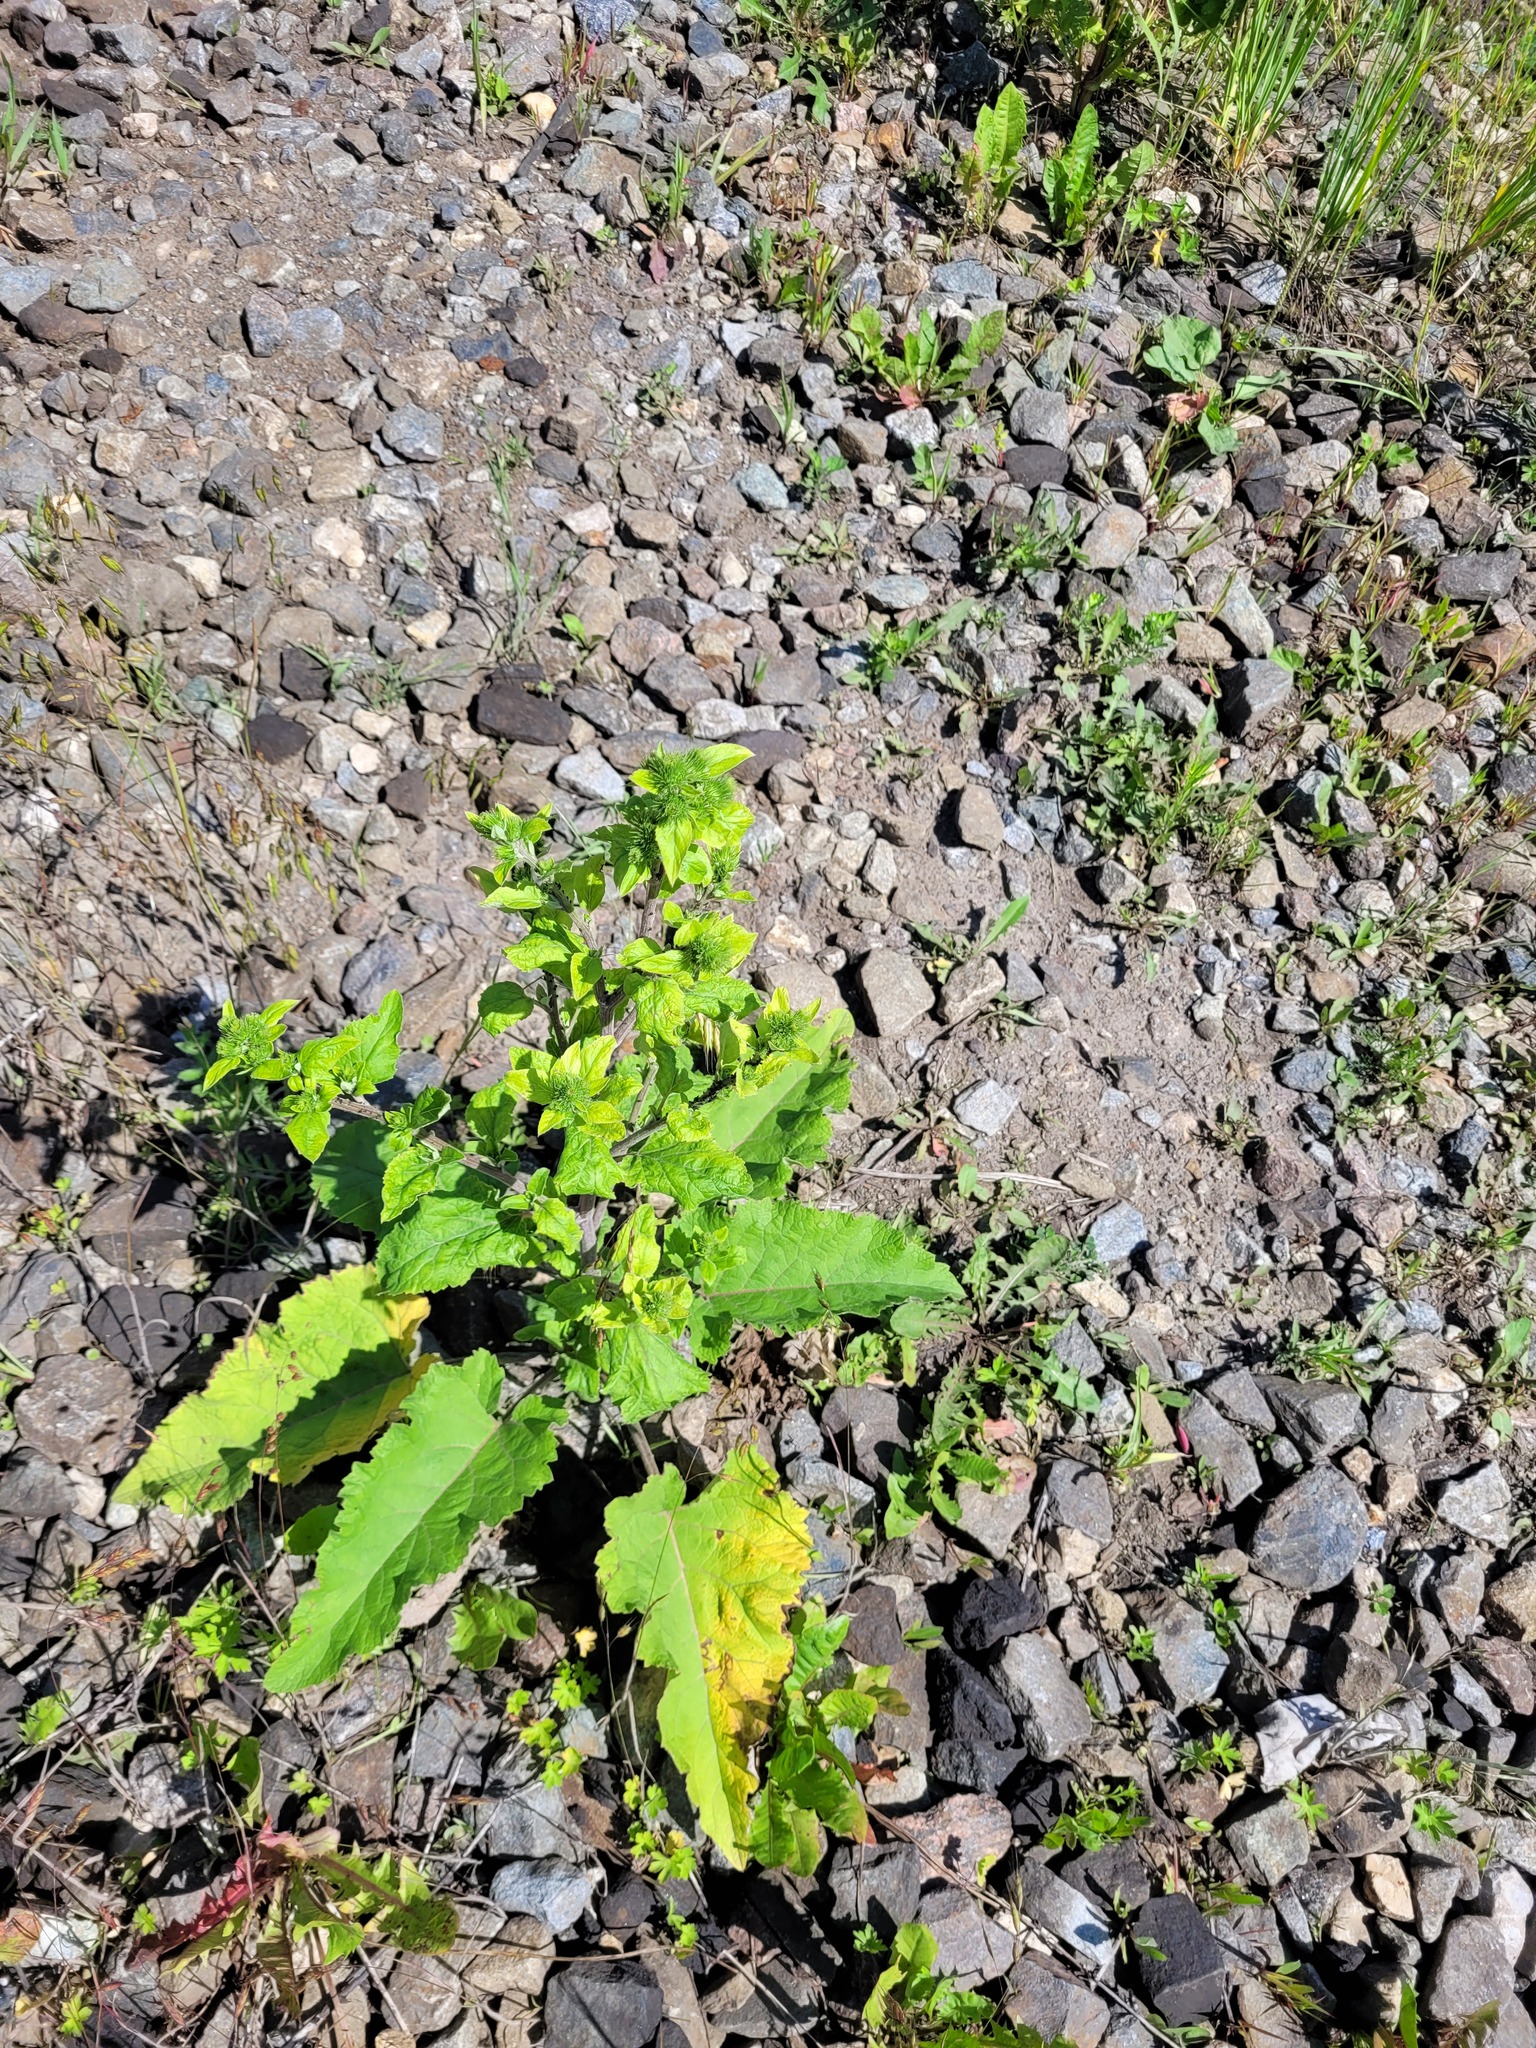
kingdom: Plantae
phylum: Tracheophyta
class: Magnoliopsida
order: Asterales
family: Asteraceae
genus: Arctium
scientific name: Arctium minus
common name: Lesser burdock
